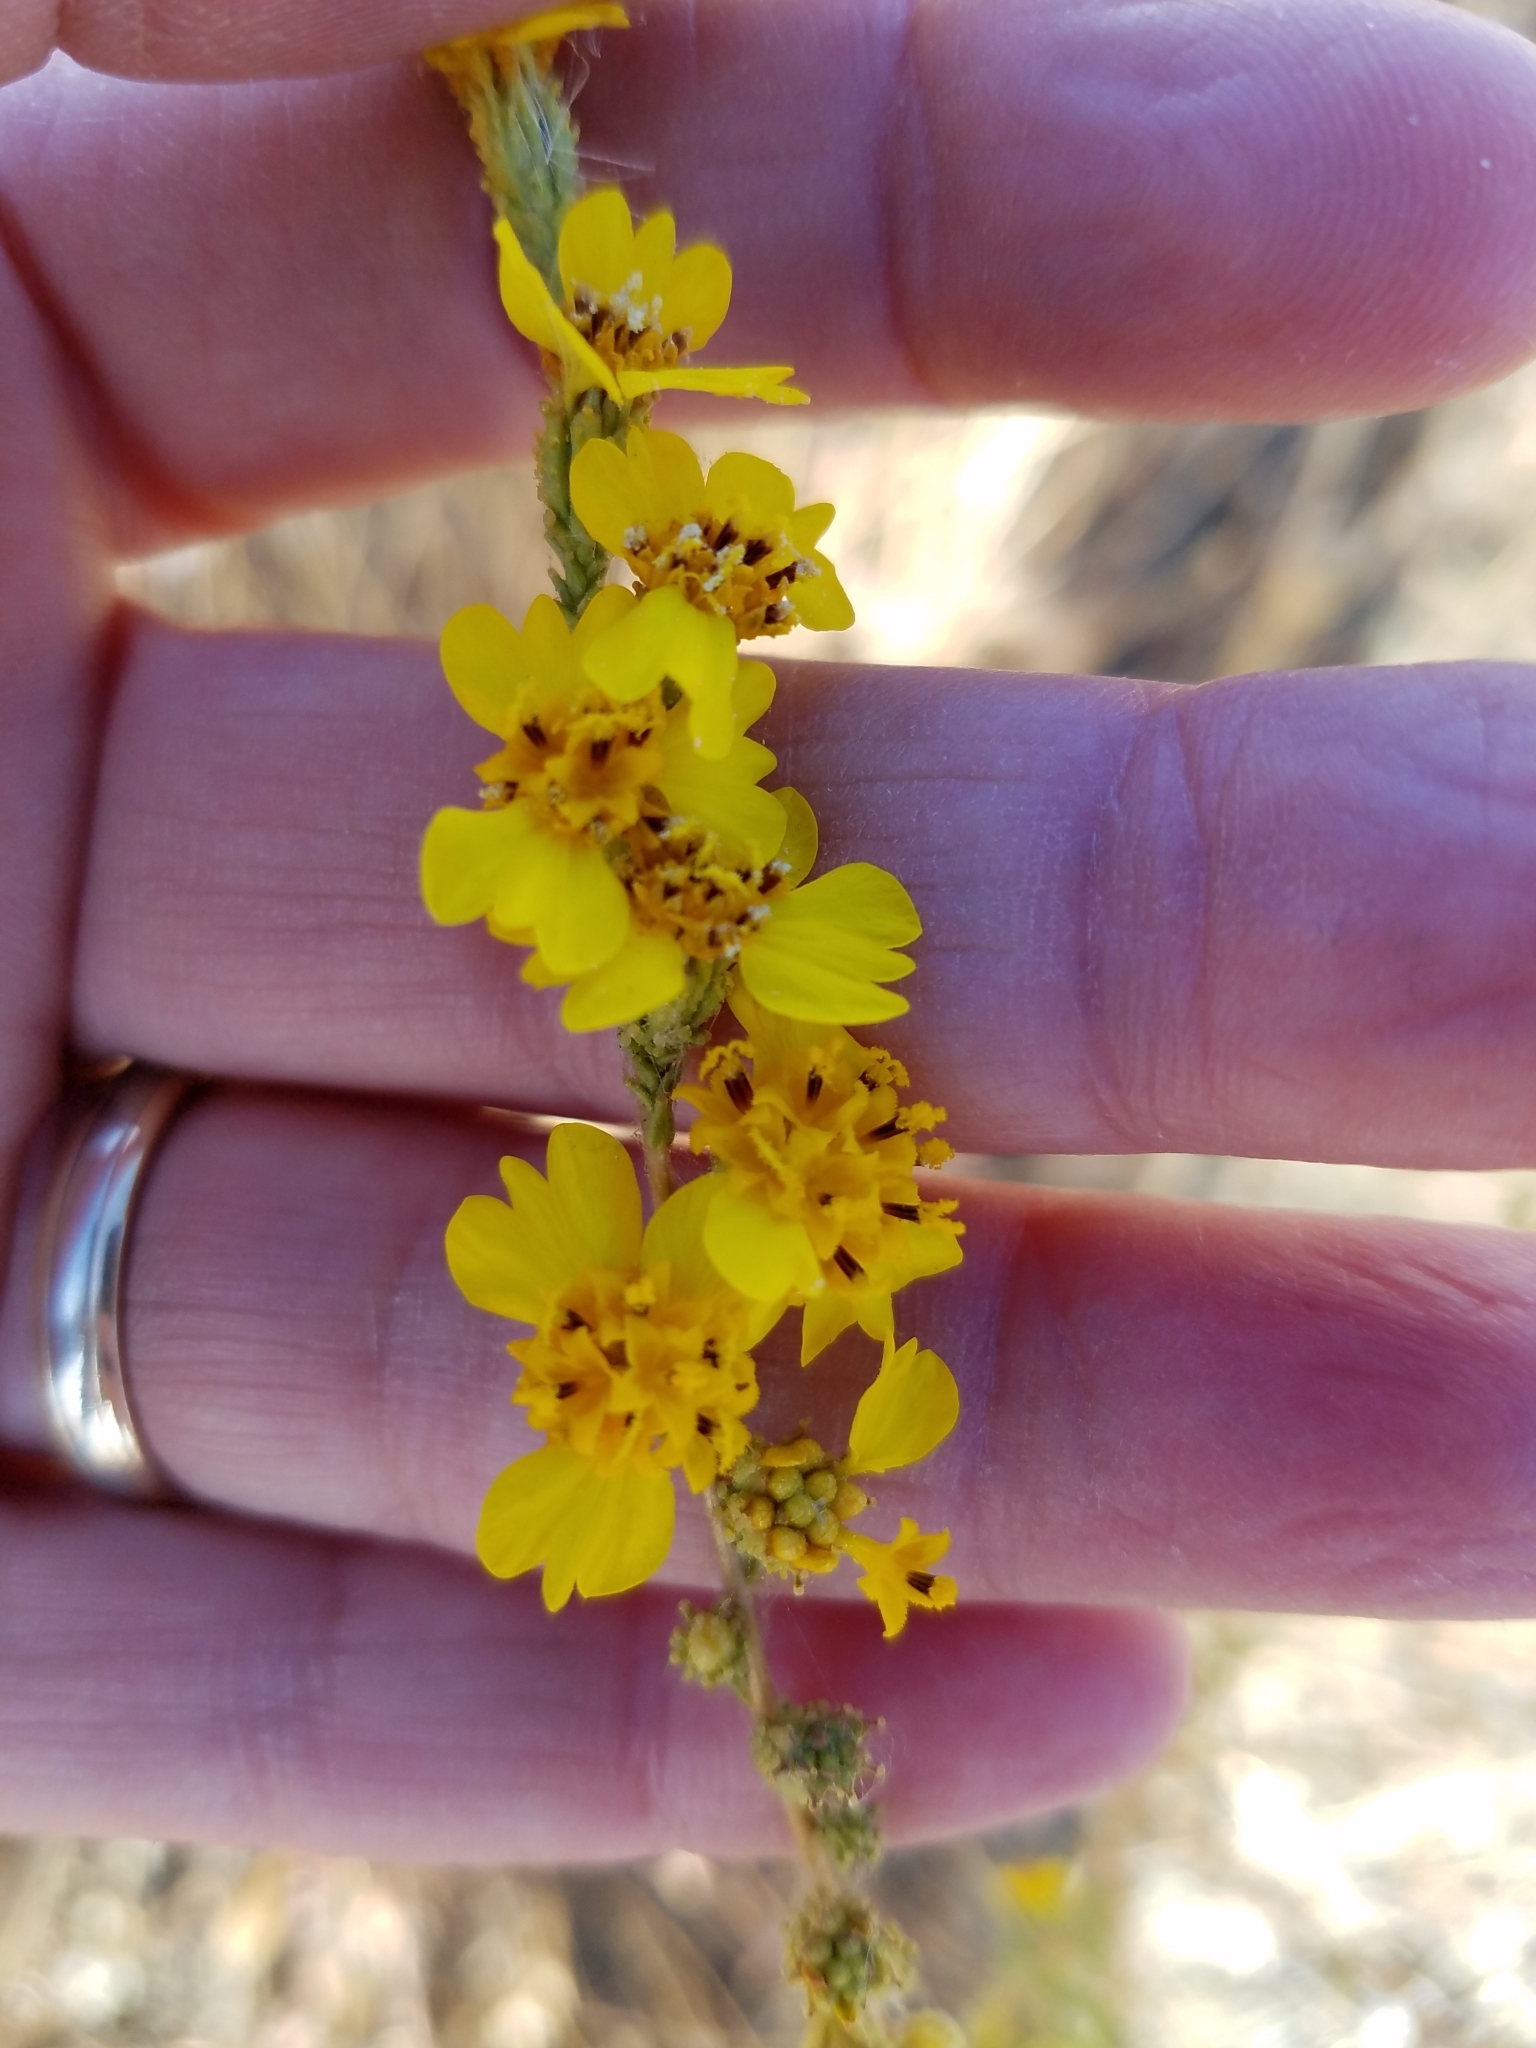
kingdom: Plantae
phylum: Tracheophyta
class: Magnoliopsida
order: Asterales
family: Asteraceae
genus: Holocarpha
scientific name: Holocarpha virgata
